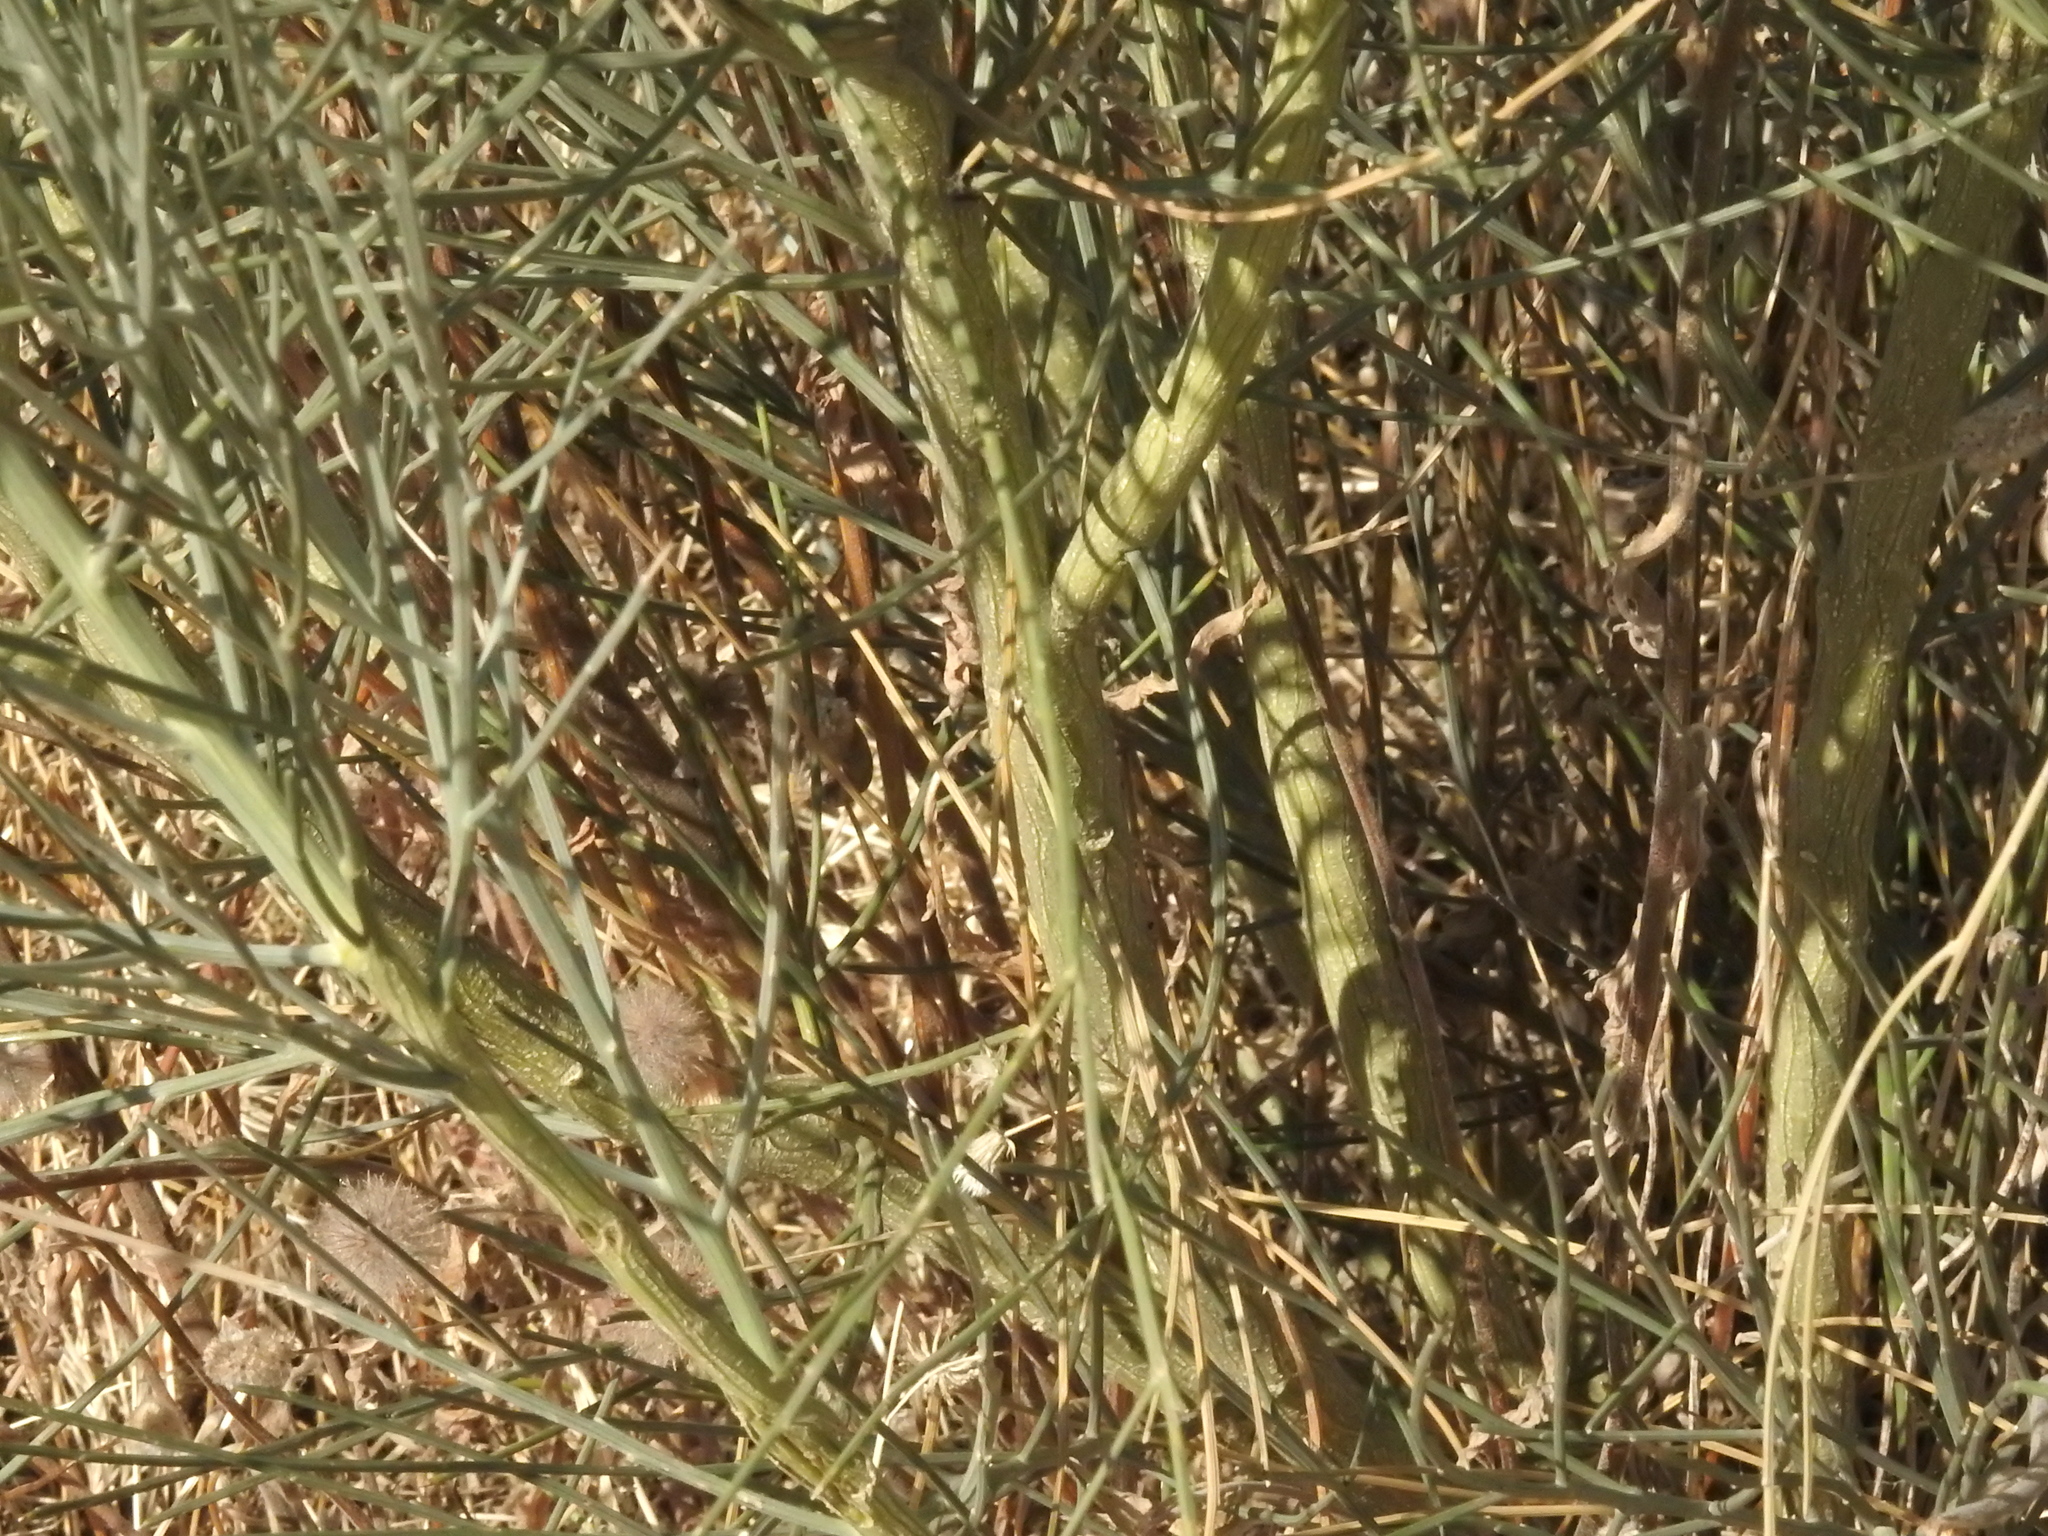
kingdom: Plantae
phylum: Tracheophyta
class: Magnoliopsida
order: Fabales
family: Fabaceae
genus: Retama
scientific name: Retama sphaerocarpa
